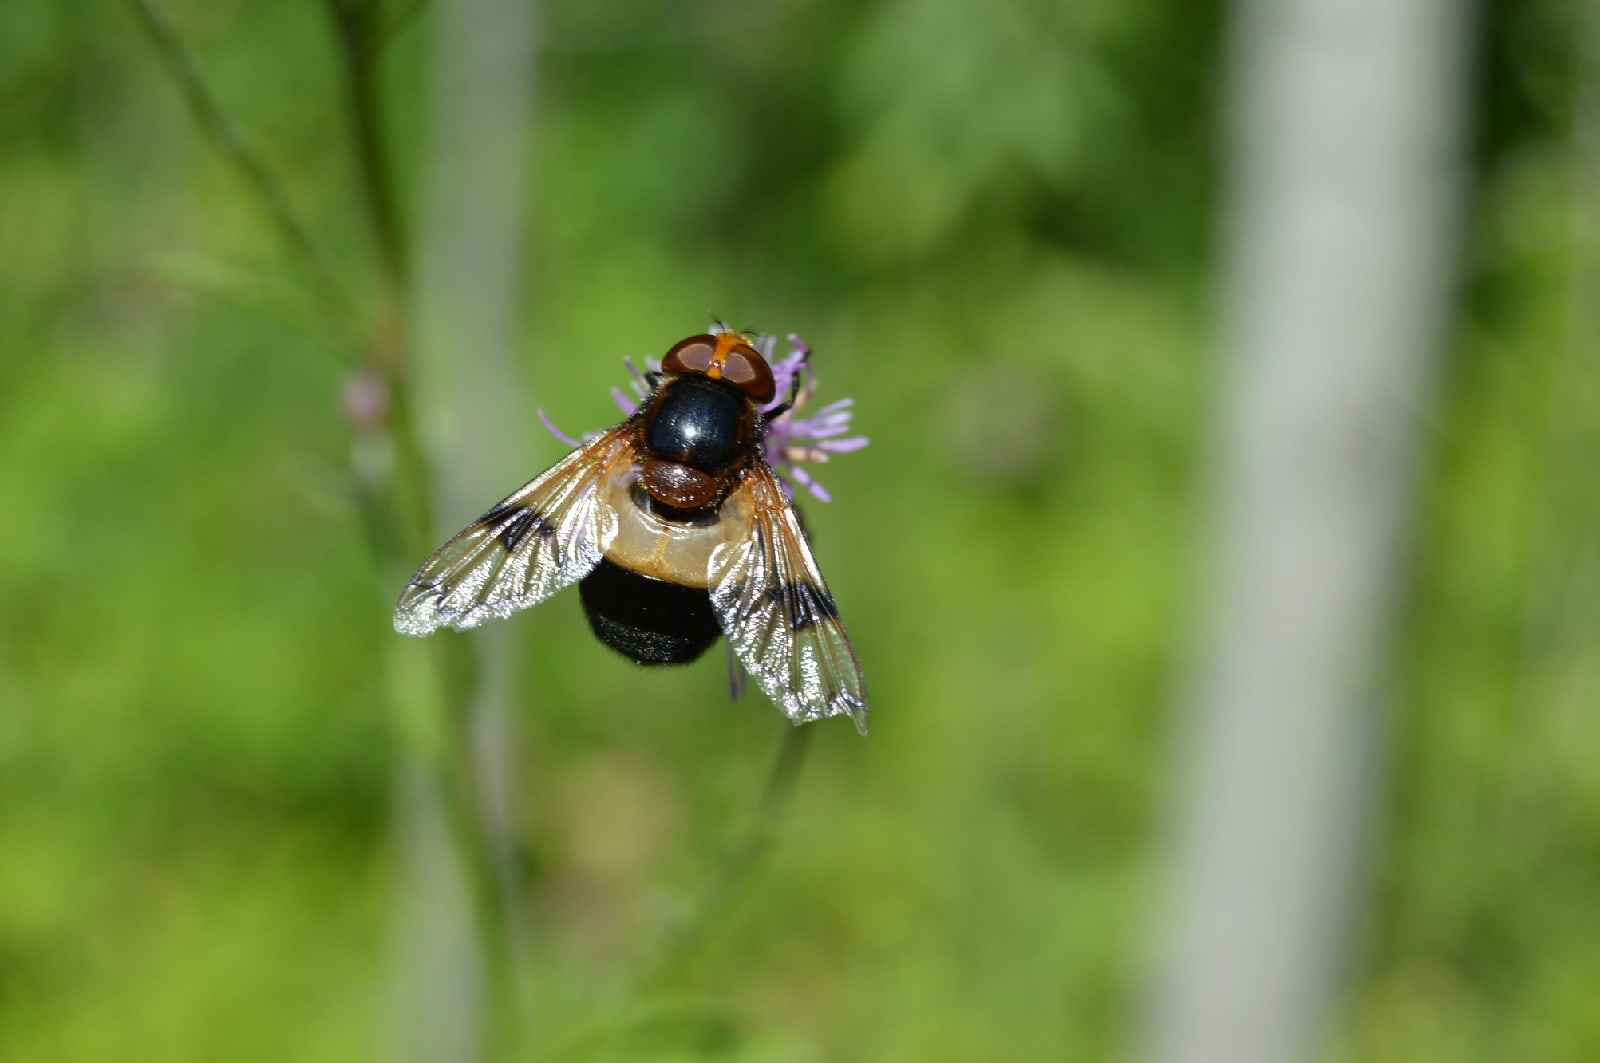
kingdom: Animalia
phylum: Arthropoda
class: Insecta
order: Diptera
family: Syrphidae
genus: Volucella
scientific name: Volucella pellucens
